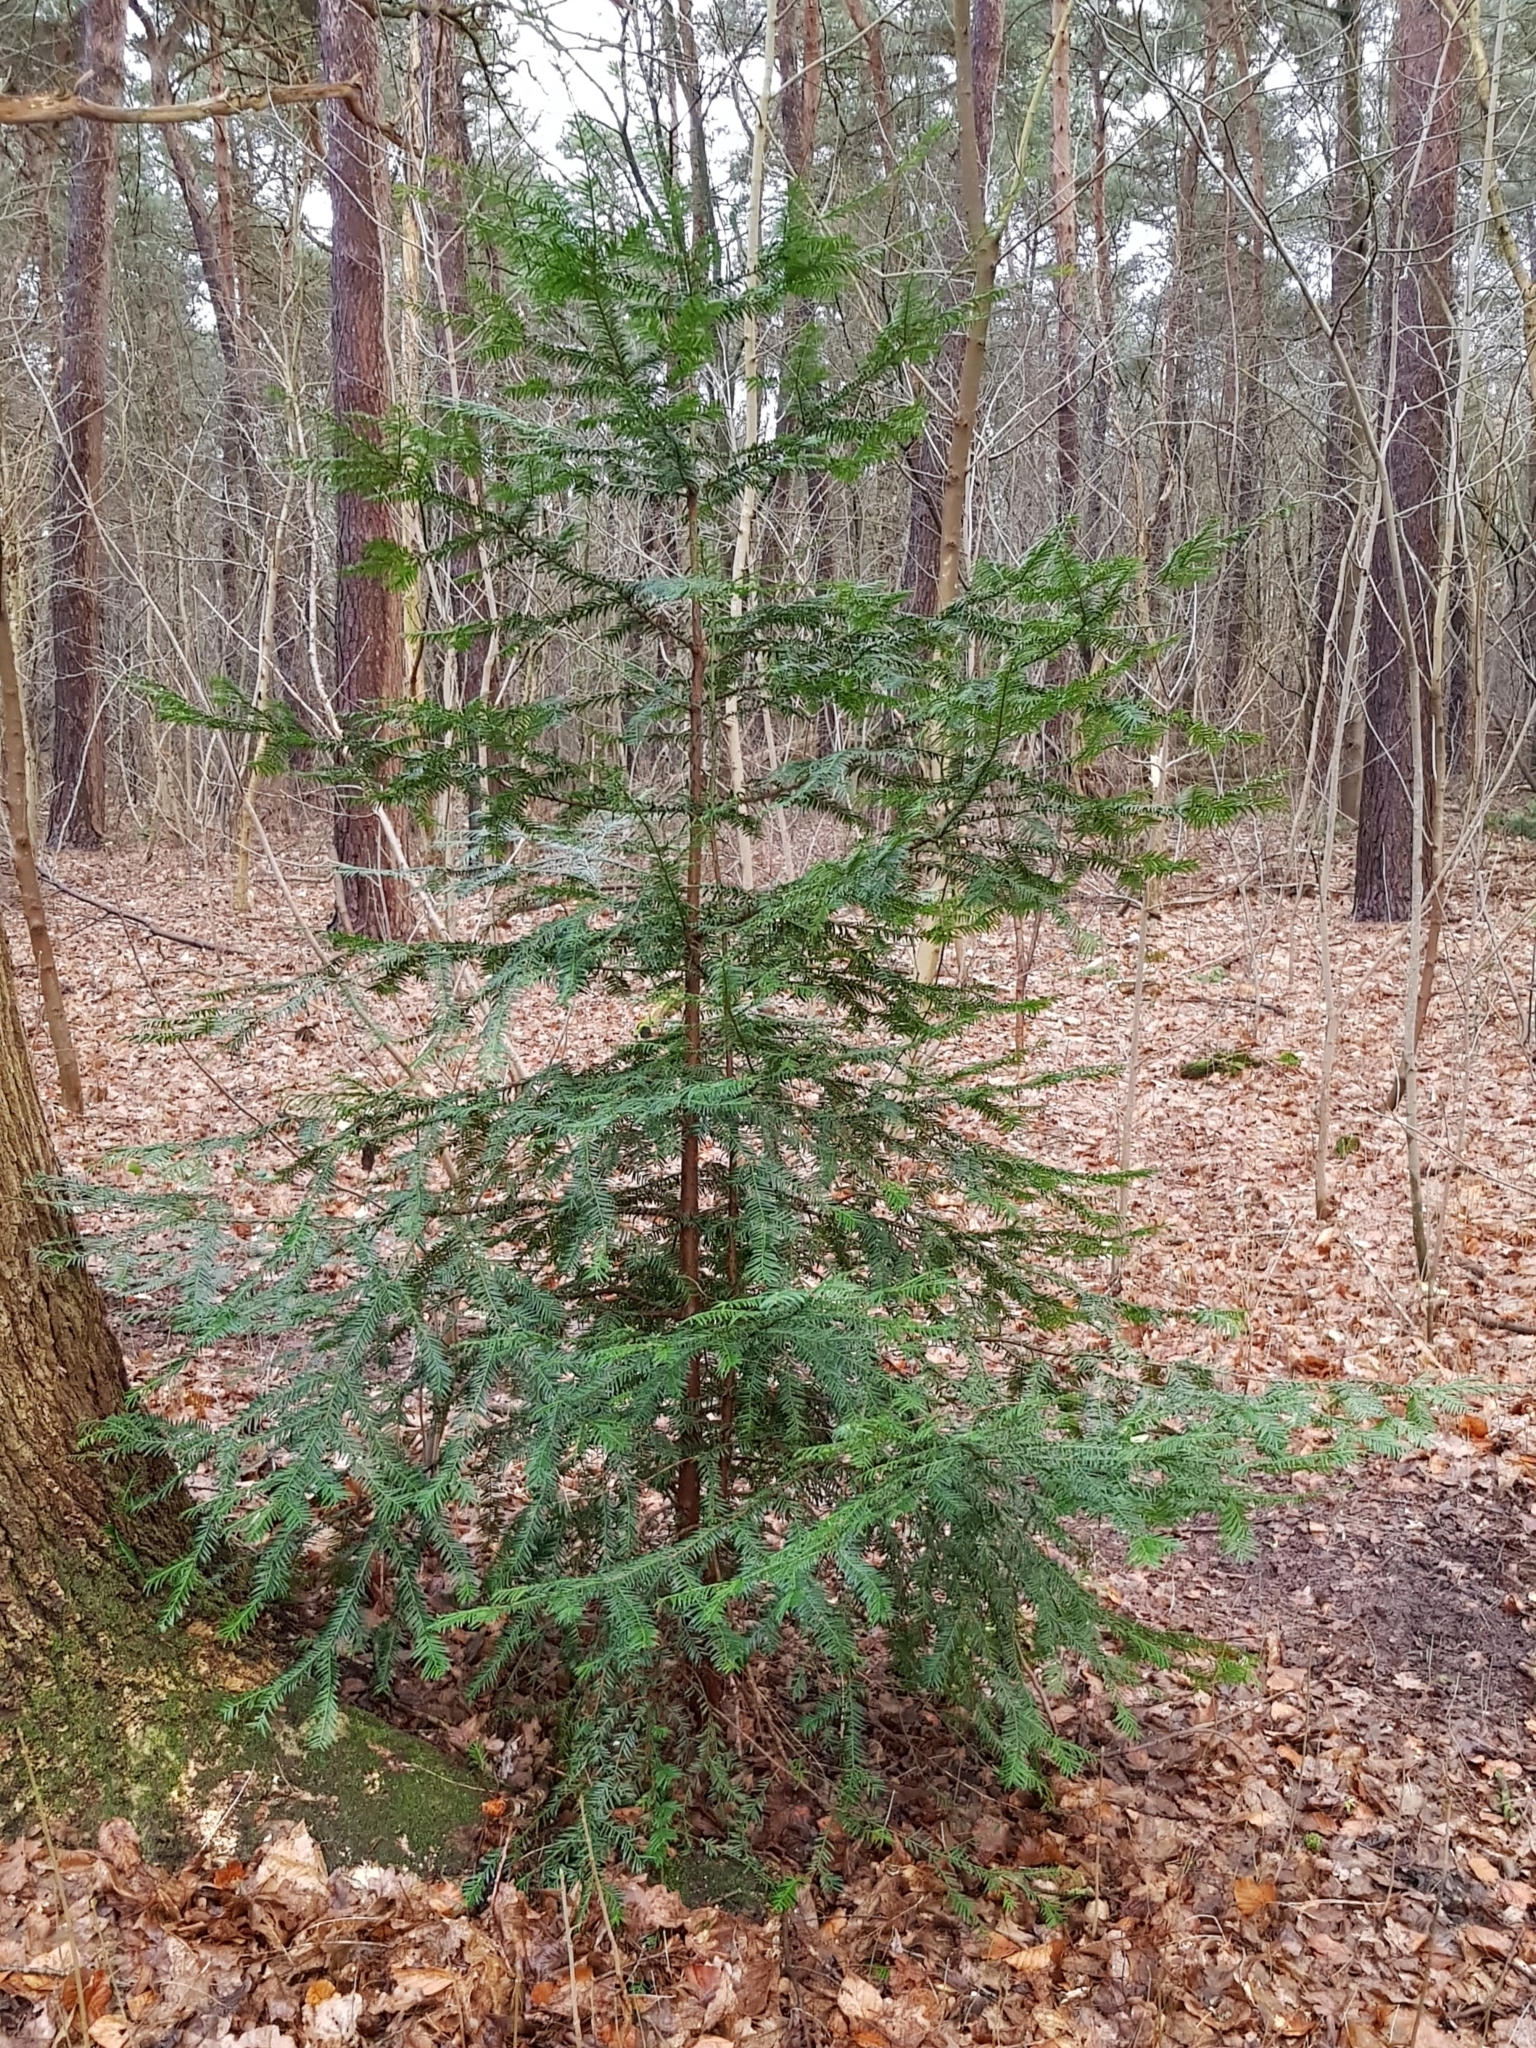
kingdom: Plantae
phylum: Tracheophyta
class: Pinopsida
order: Pinales
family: Taxaceae
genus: Taxus
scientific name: Taxus baccata
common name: Yew
